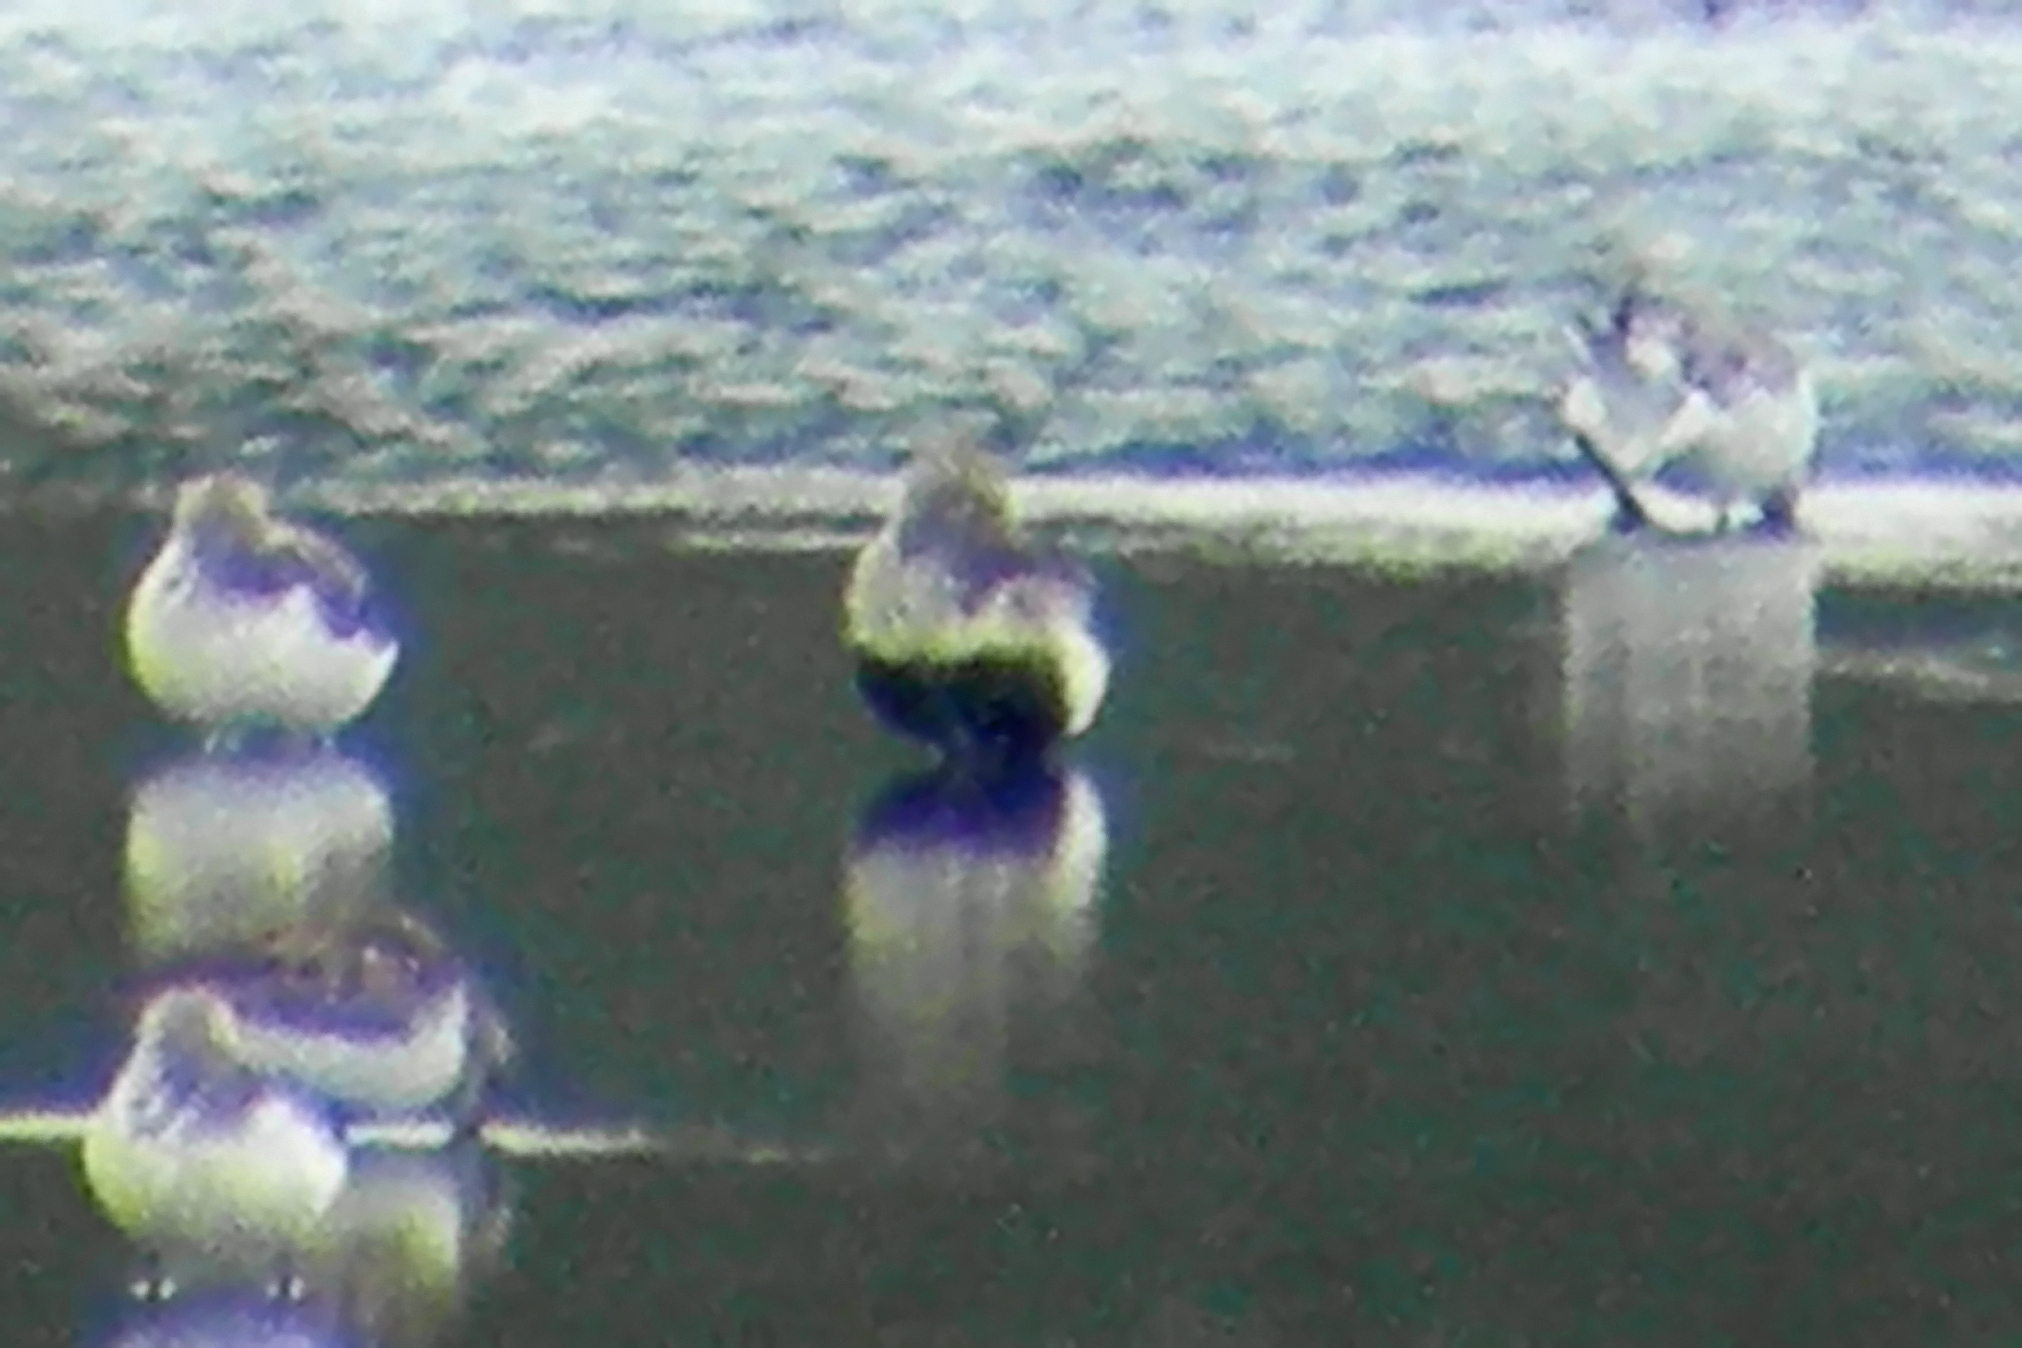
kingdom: Animalia
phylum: Chordata
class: Aves
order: Charadriiformes
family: Scolopacidae
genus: Calidris
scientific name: Calidris alpina
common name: Dunlin
